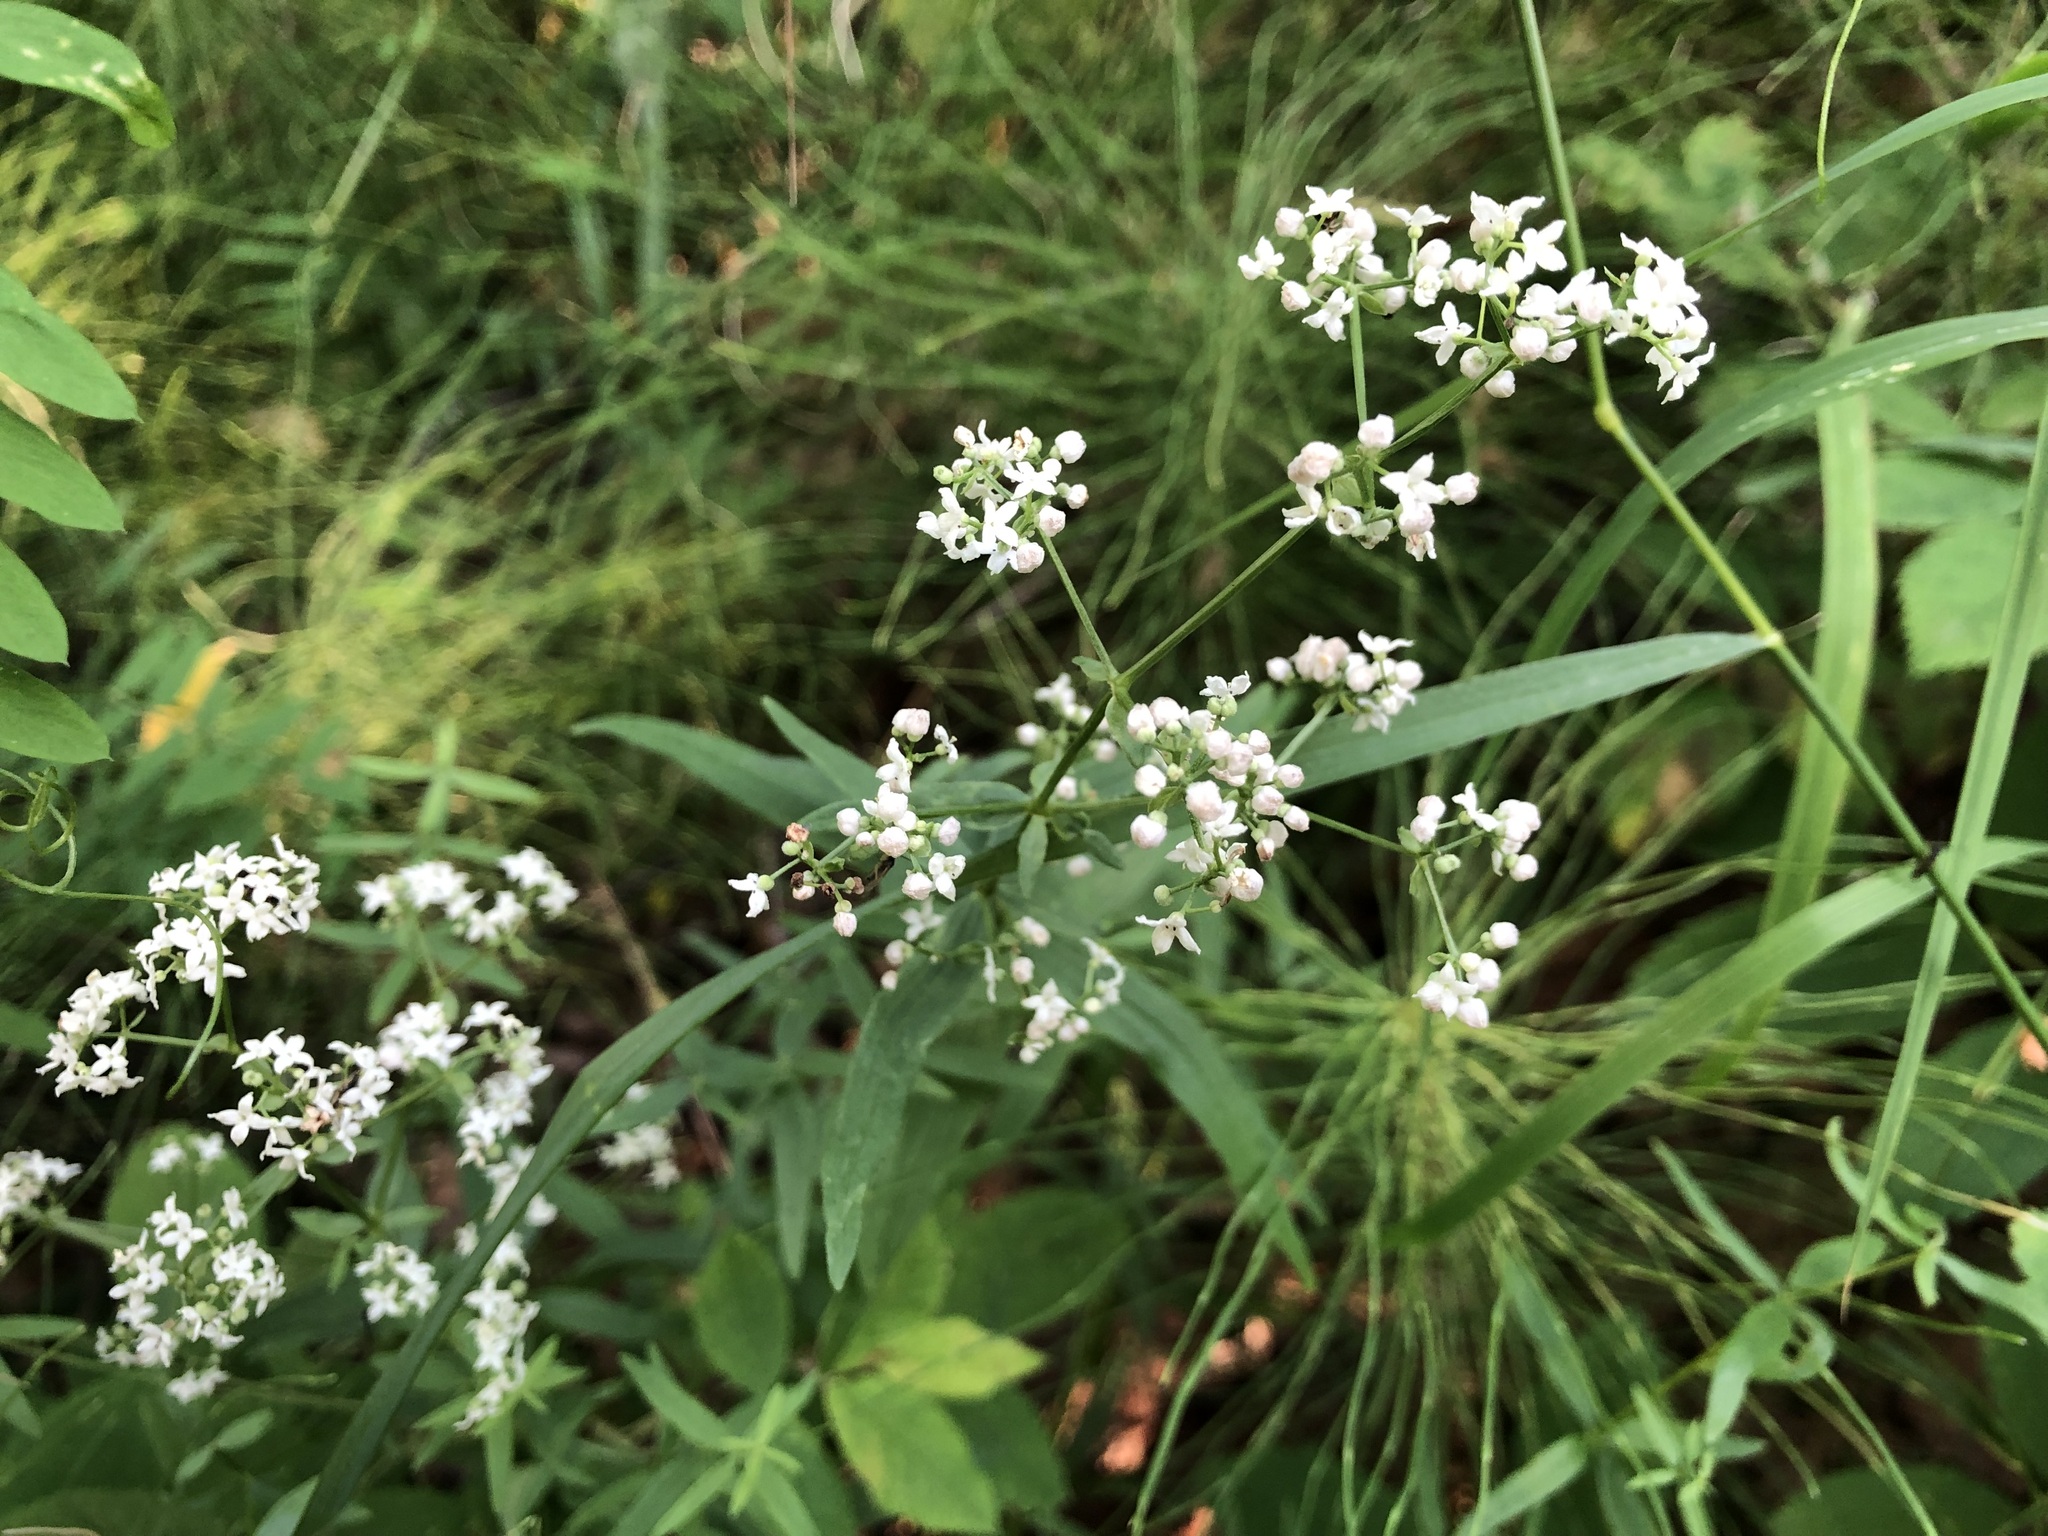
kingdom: Plantae
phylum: Tracheophyta
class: Magnoliopsida
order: Gentianales
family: Rubiaceae
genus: Galium
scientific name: Galium boreale
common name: Northern bedstraw
